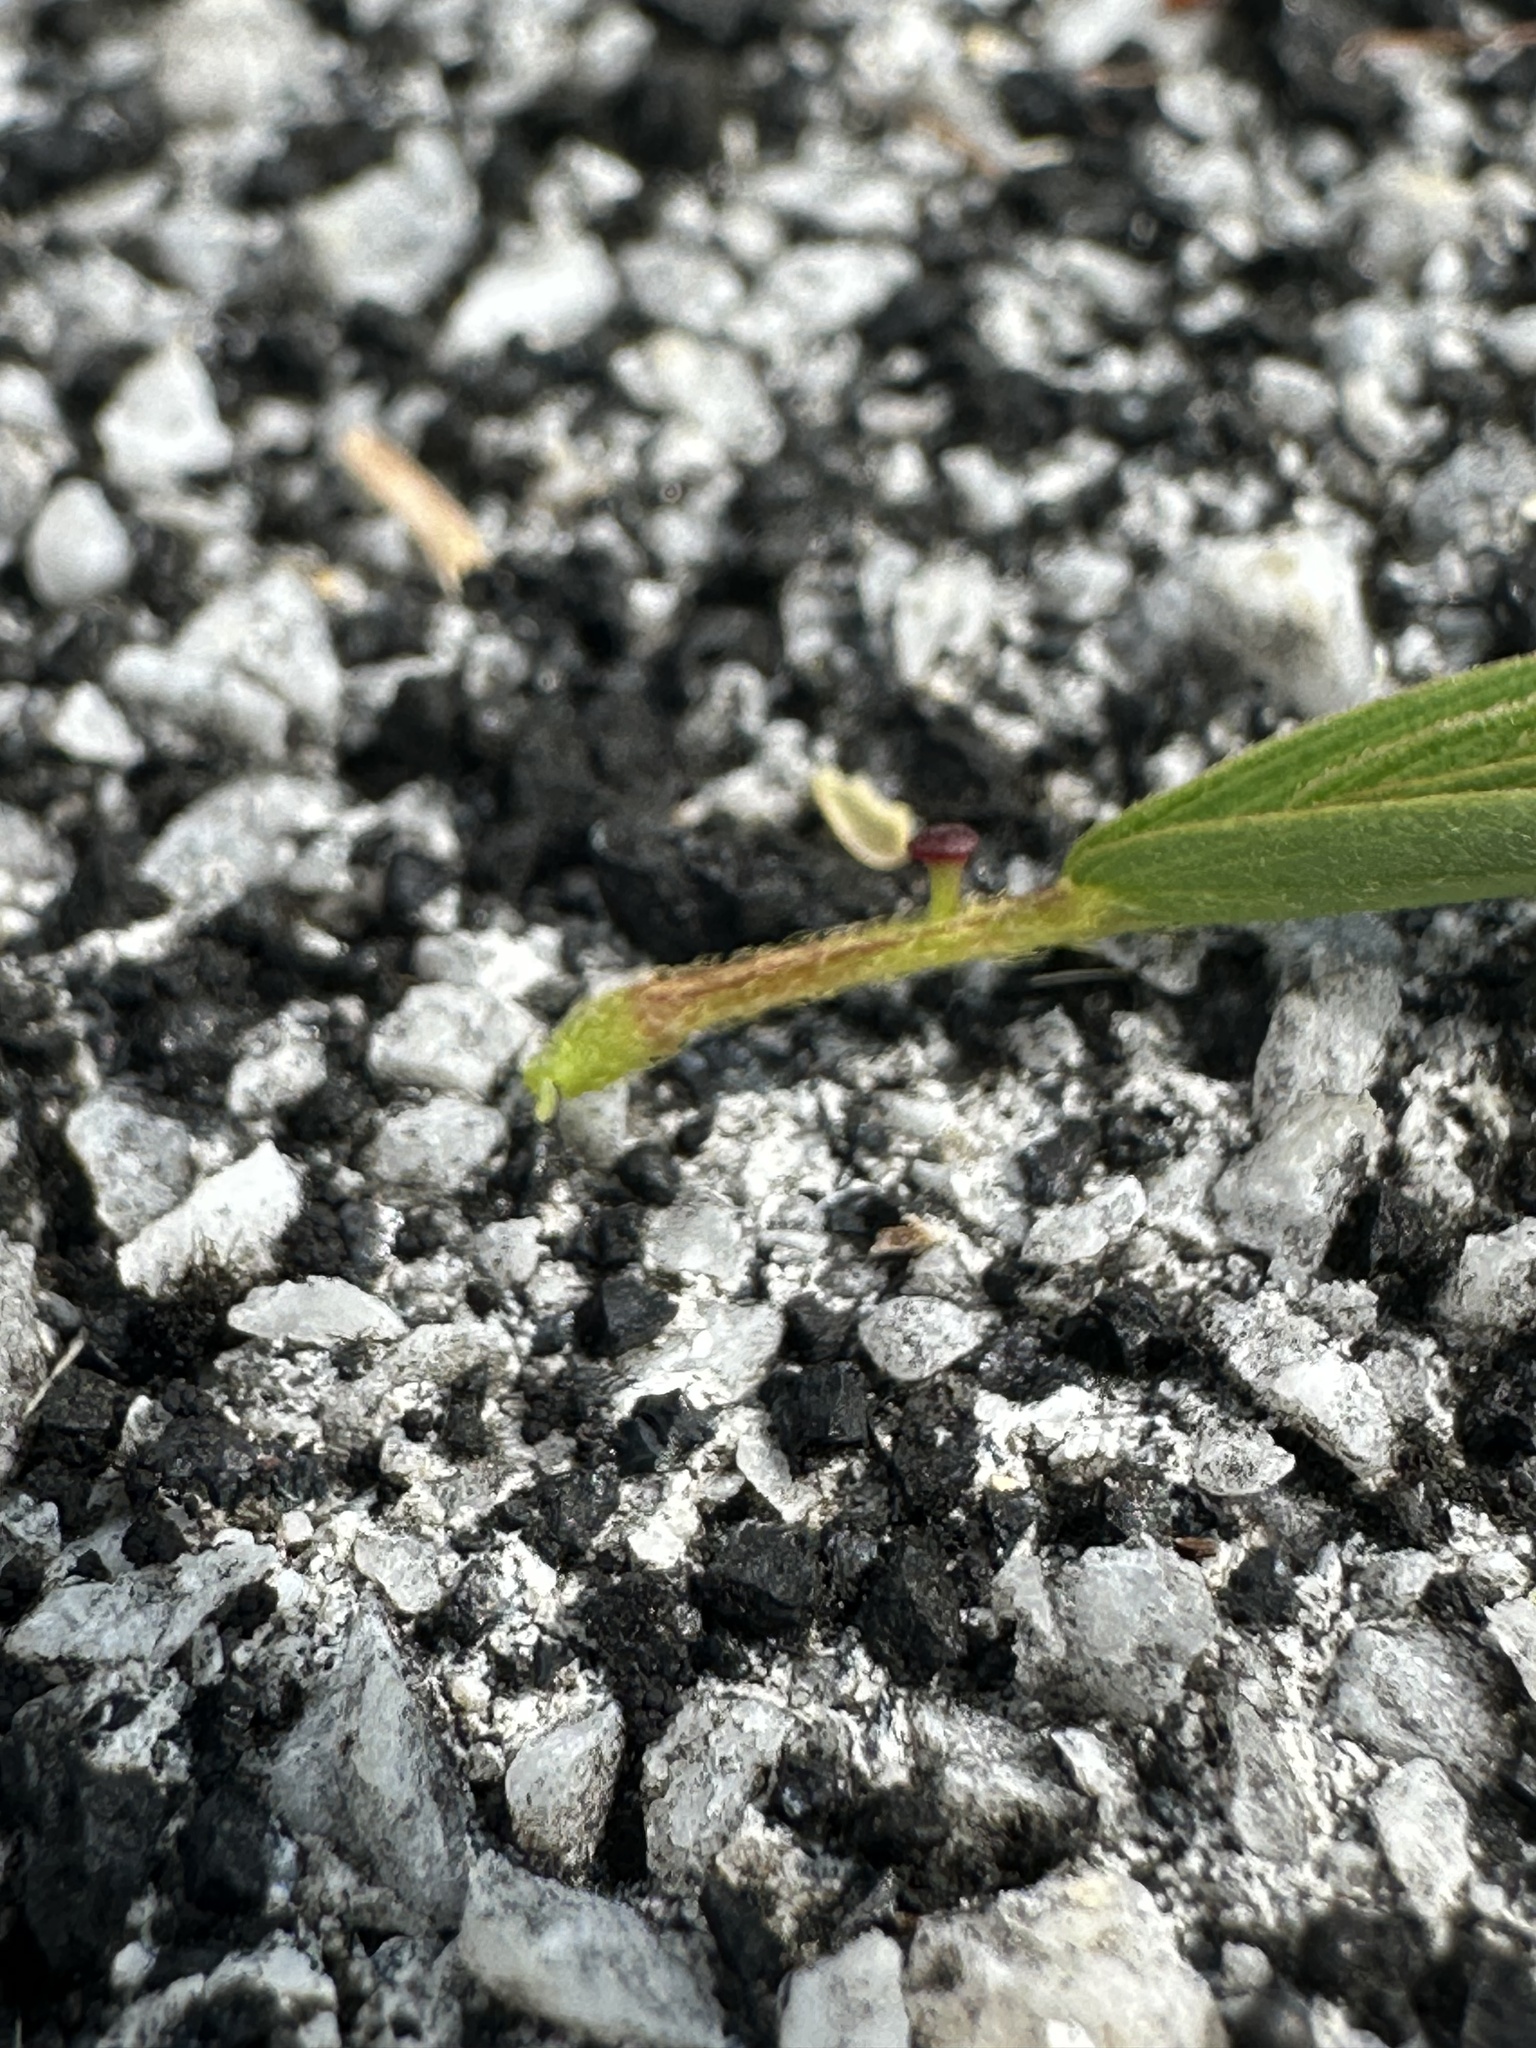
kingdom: Plantae
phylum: Tracheophyta
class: Magnoliopsida
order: Fabales
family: Fabaceae
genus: Chamaecrista
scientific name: Chamaecrista nictitans
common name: Sensitive cassia
